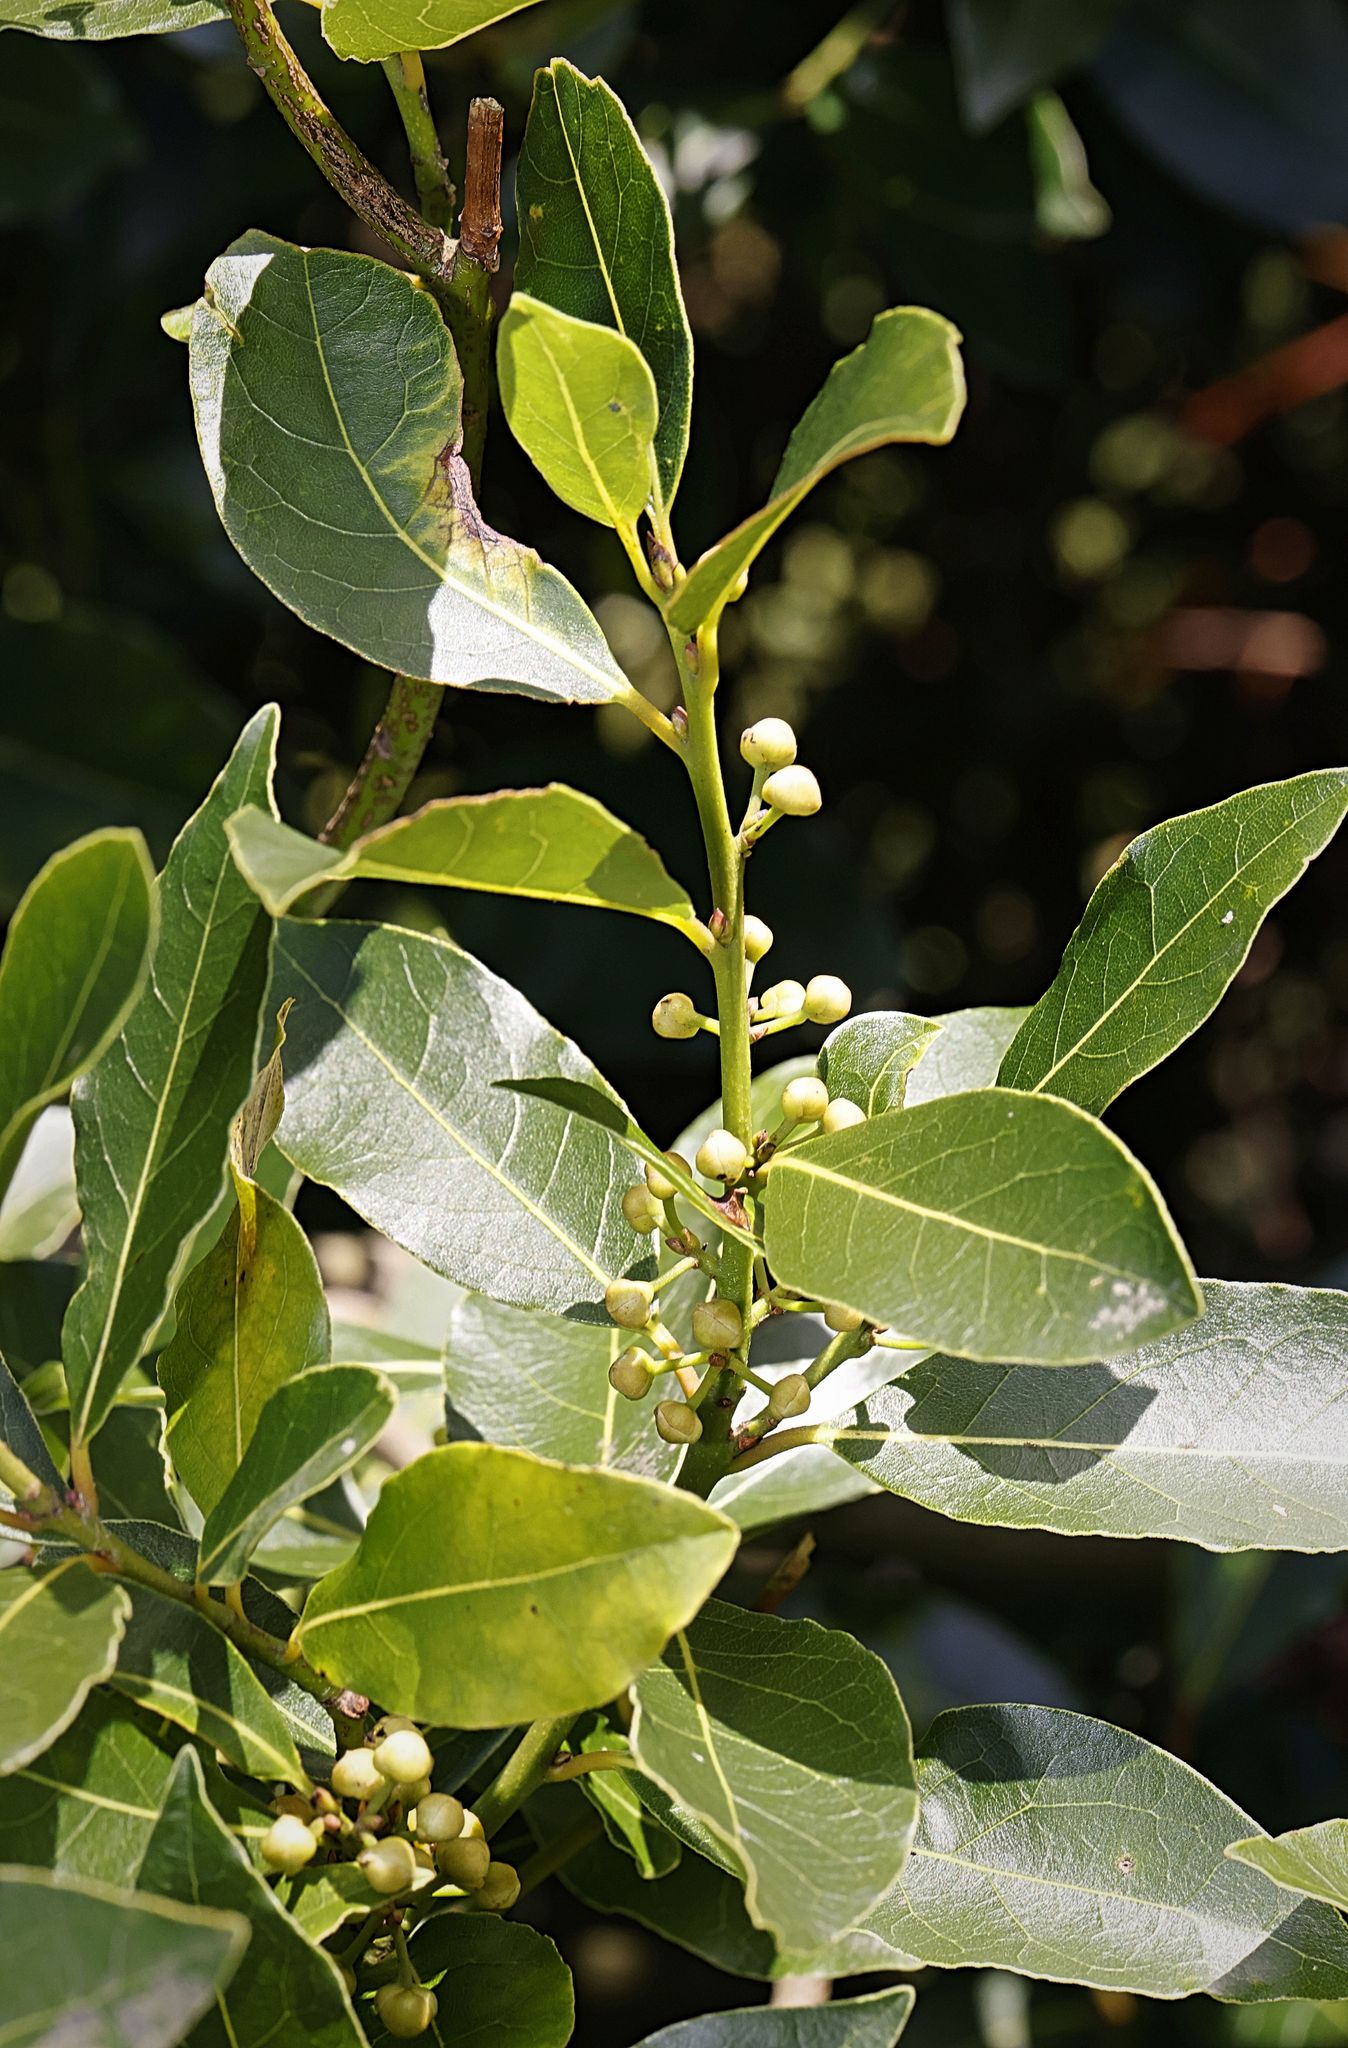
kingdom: Plantae
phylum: Tracheophyta
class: Magnoliopsida
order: Aquifoliales
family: Aquifoliaceae
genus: Ilex
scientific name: Ilex altaclerensis
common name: Highclere holly
